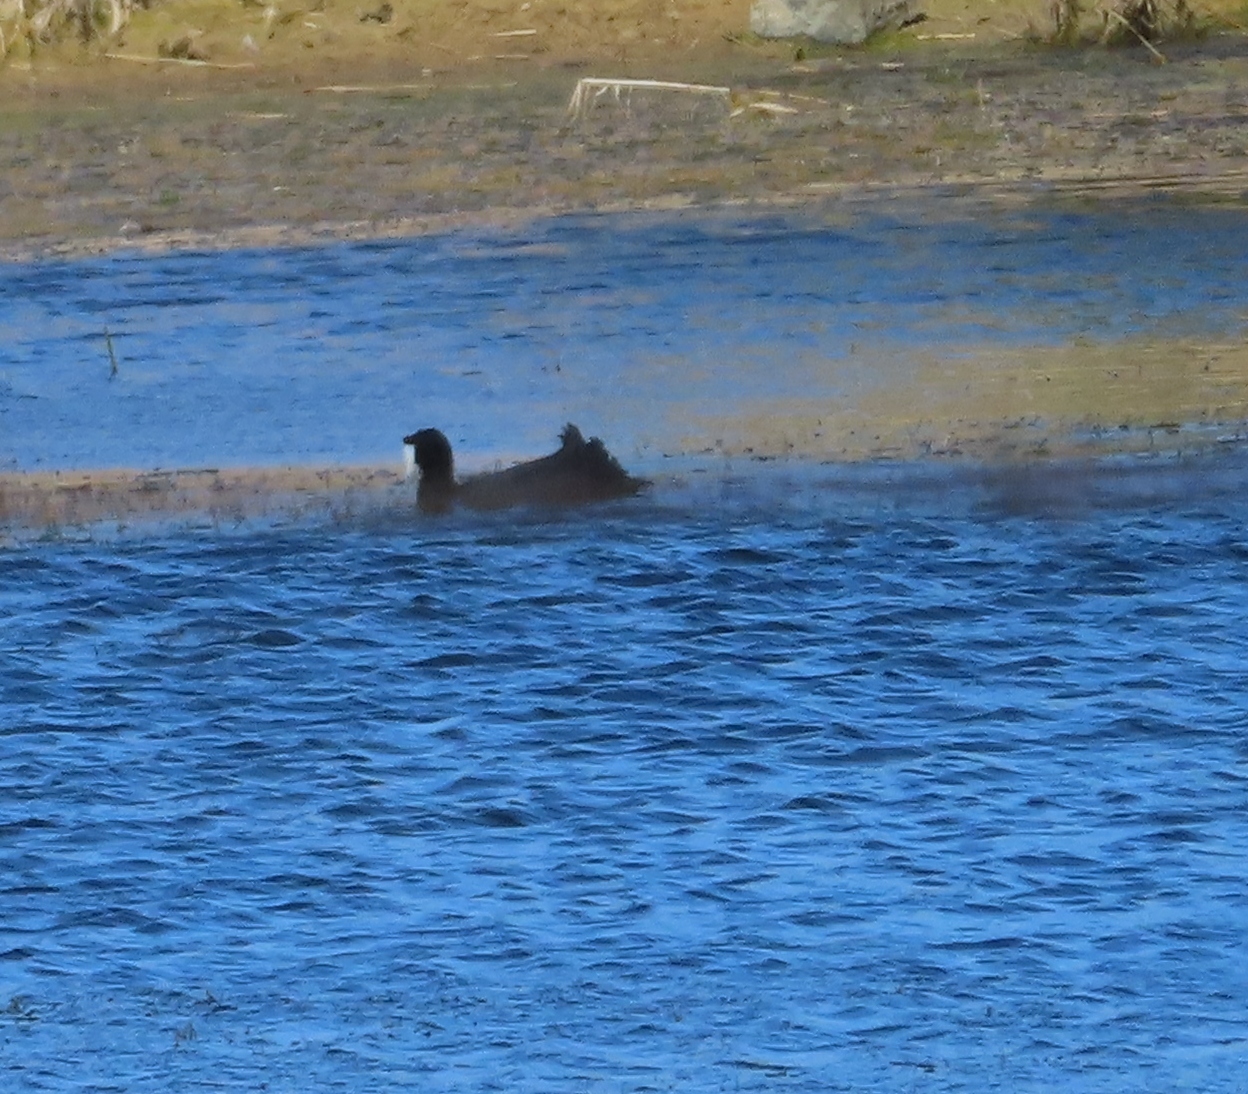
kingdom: Animalia
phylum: Chordata
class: Aves
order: Gruiformes
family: Rallidae
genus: Fulica
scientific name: Fulica cristata
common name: Red-knobbed coot
